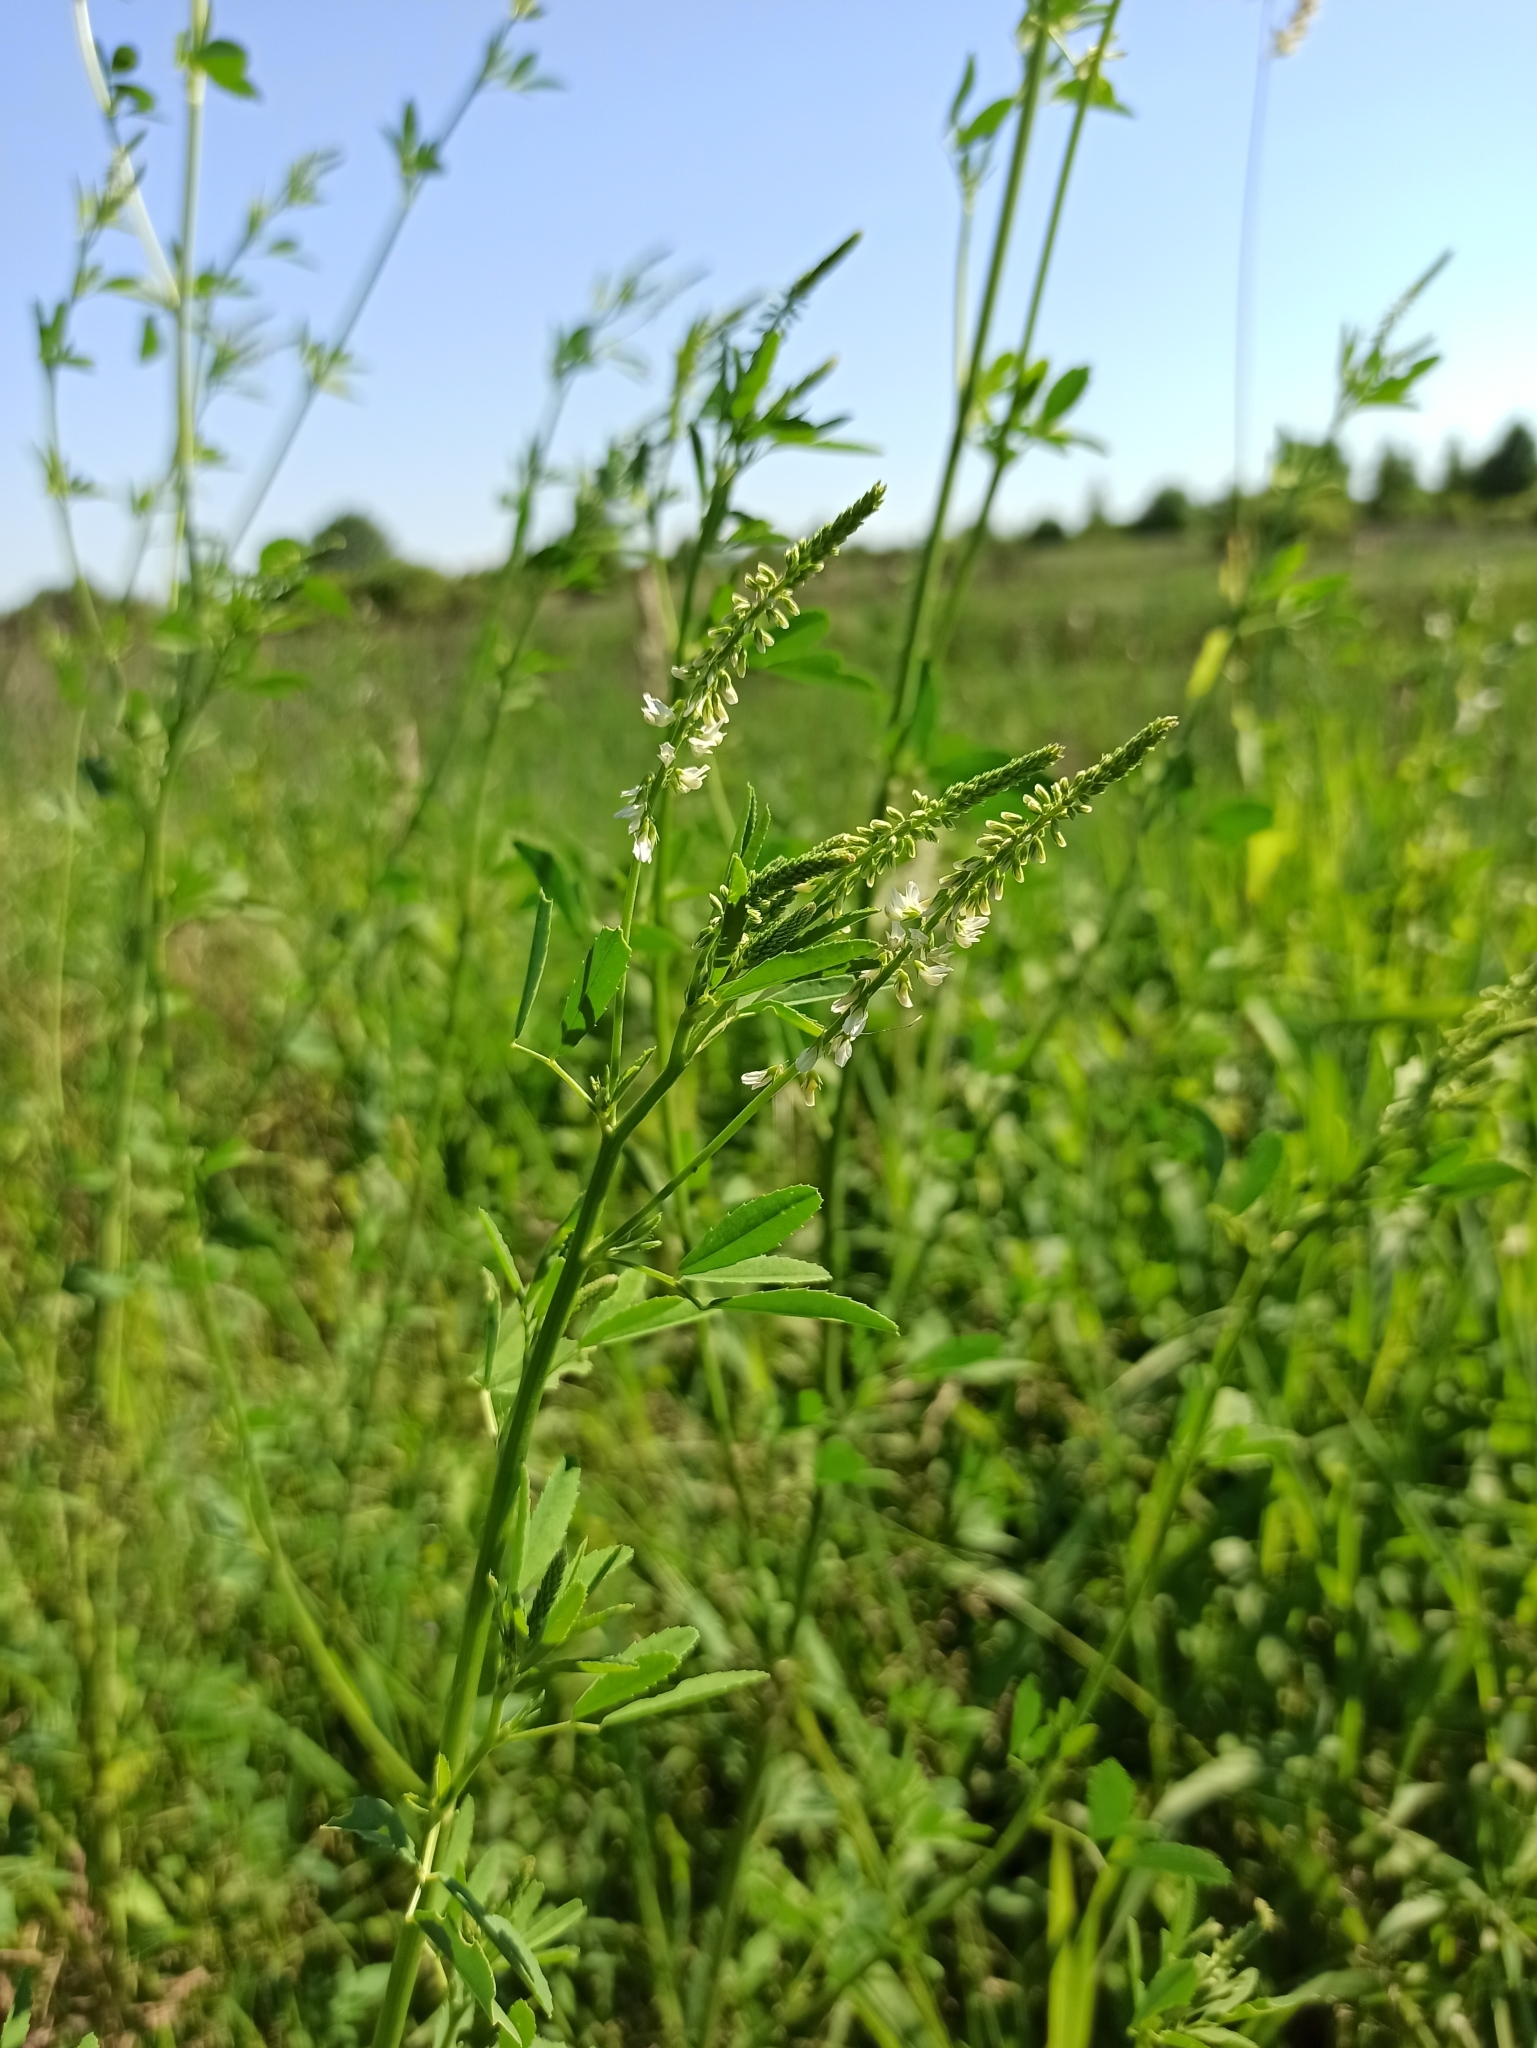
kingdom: Plantae
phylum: Tracheophyta
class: Magnoliopsida
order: Fabales
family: Fabaceae
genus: Melilotus
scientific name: Melilotus albus
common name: White melilot
